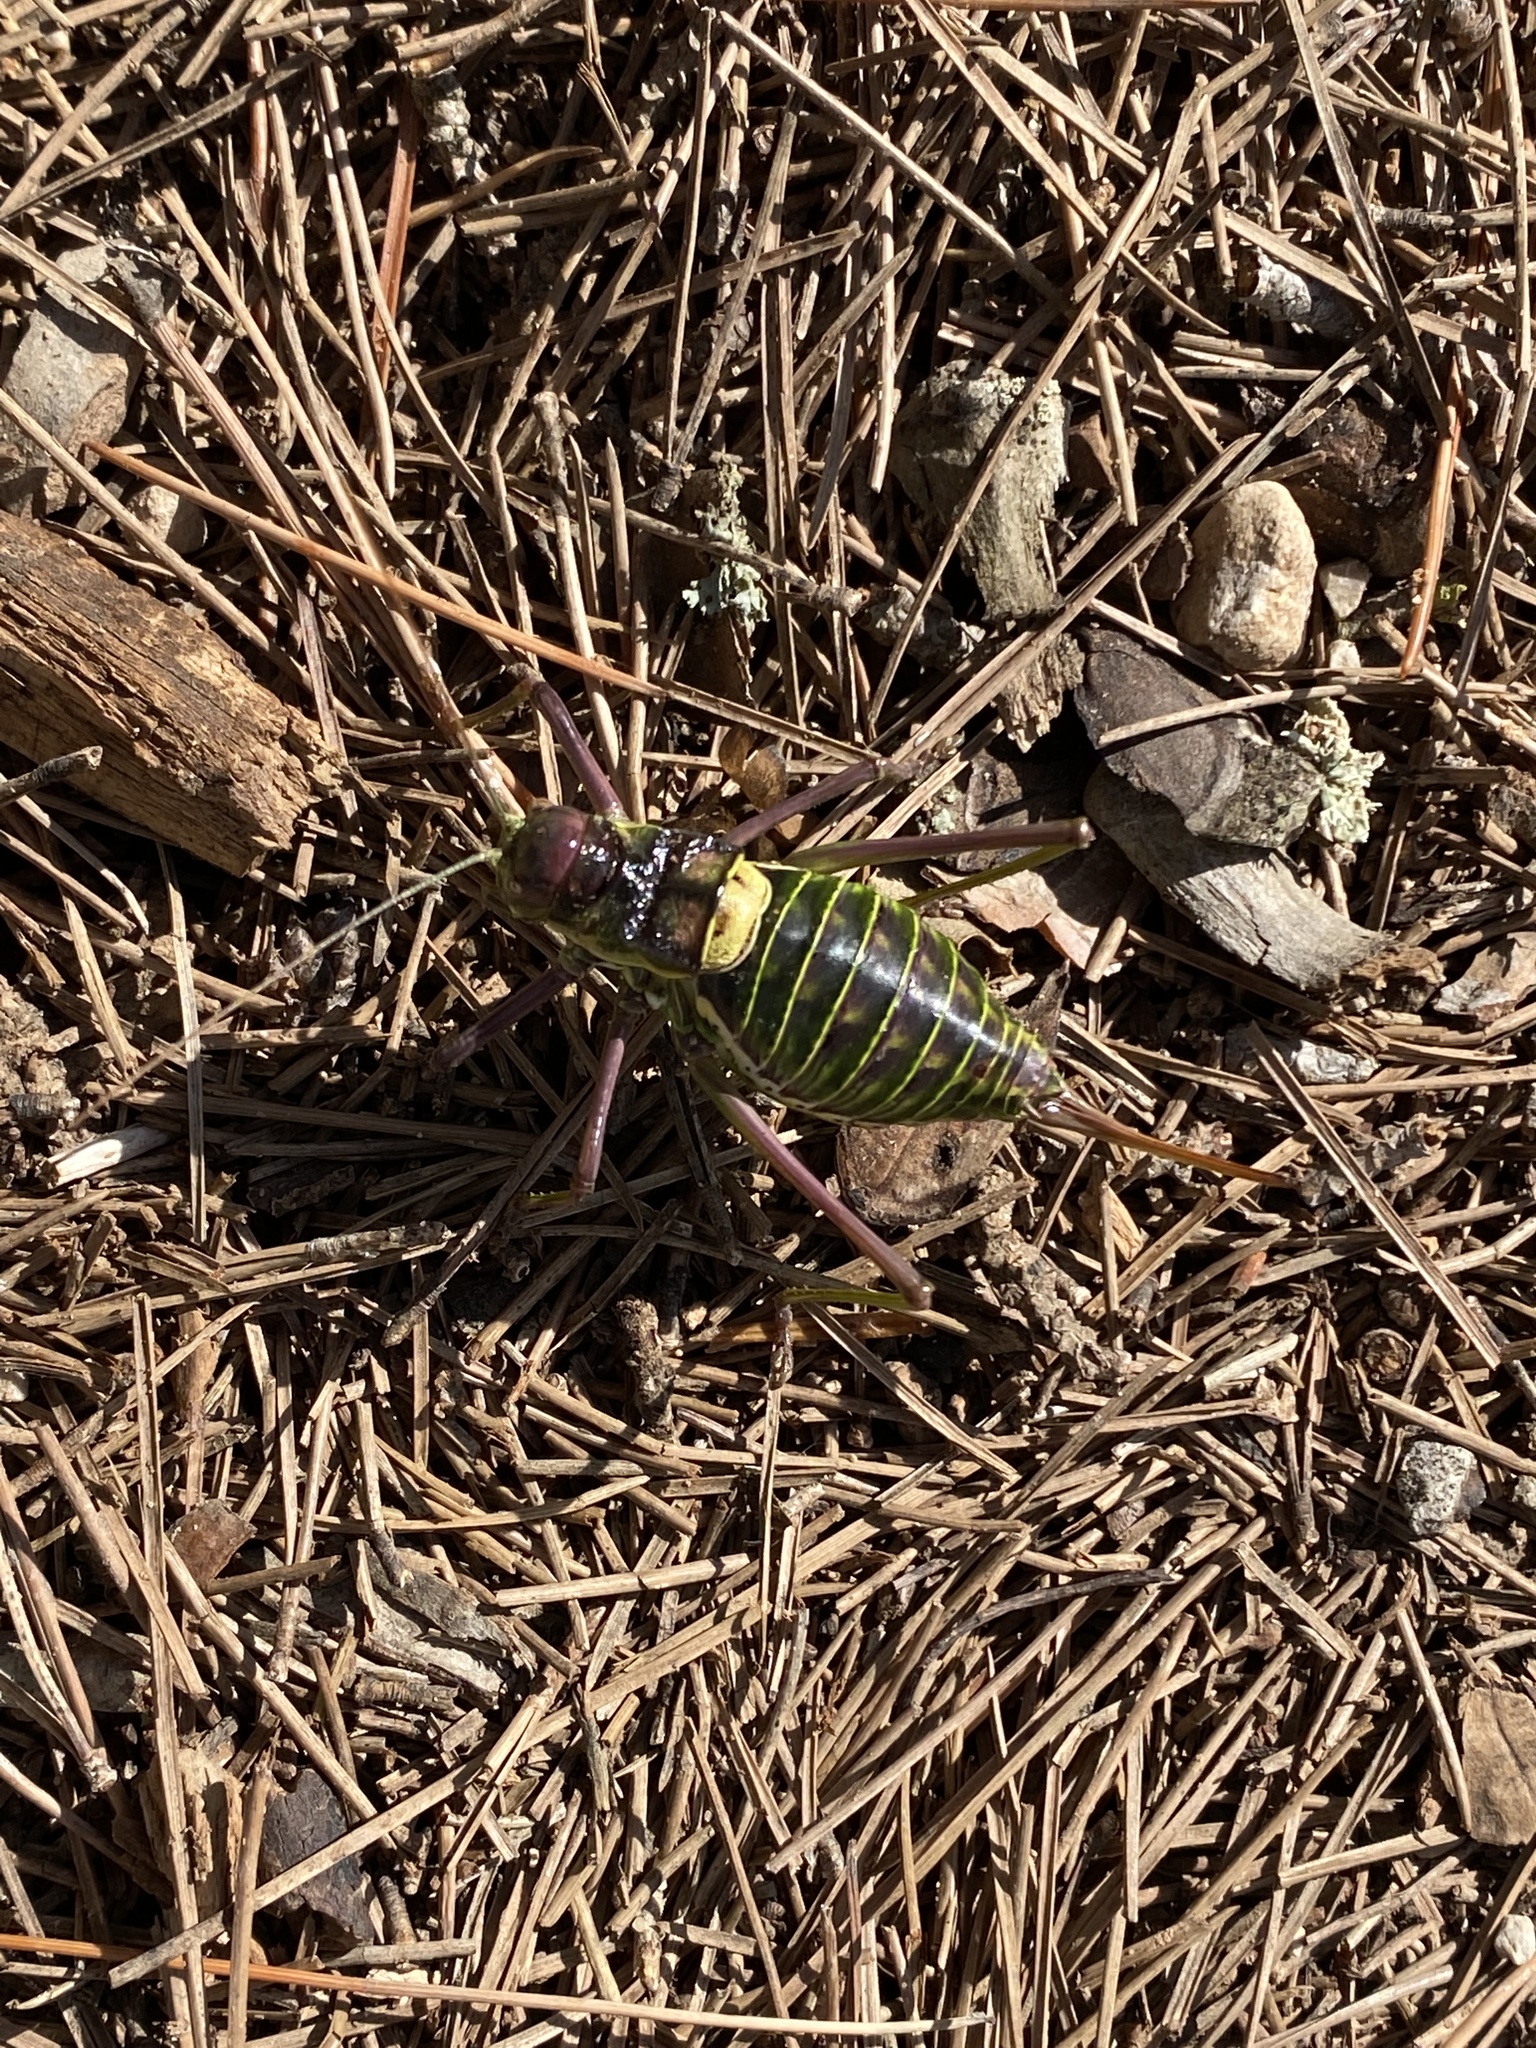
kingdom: Animalia
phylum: Arthropoda
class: Insecta
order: Orthoptera
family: Tettigoniidae
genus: Parasteropleurus
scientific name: Parasteropleurus perezii
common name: Perez's saddle bush-cricke
